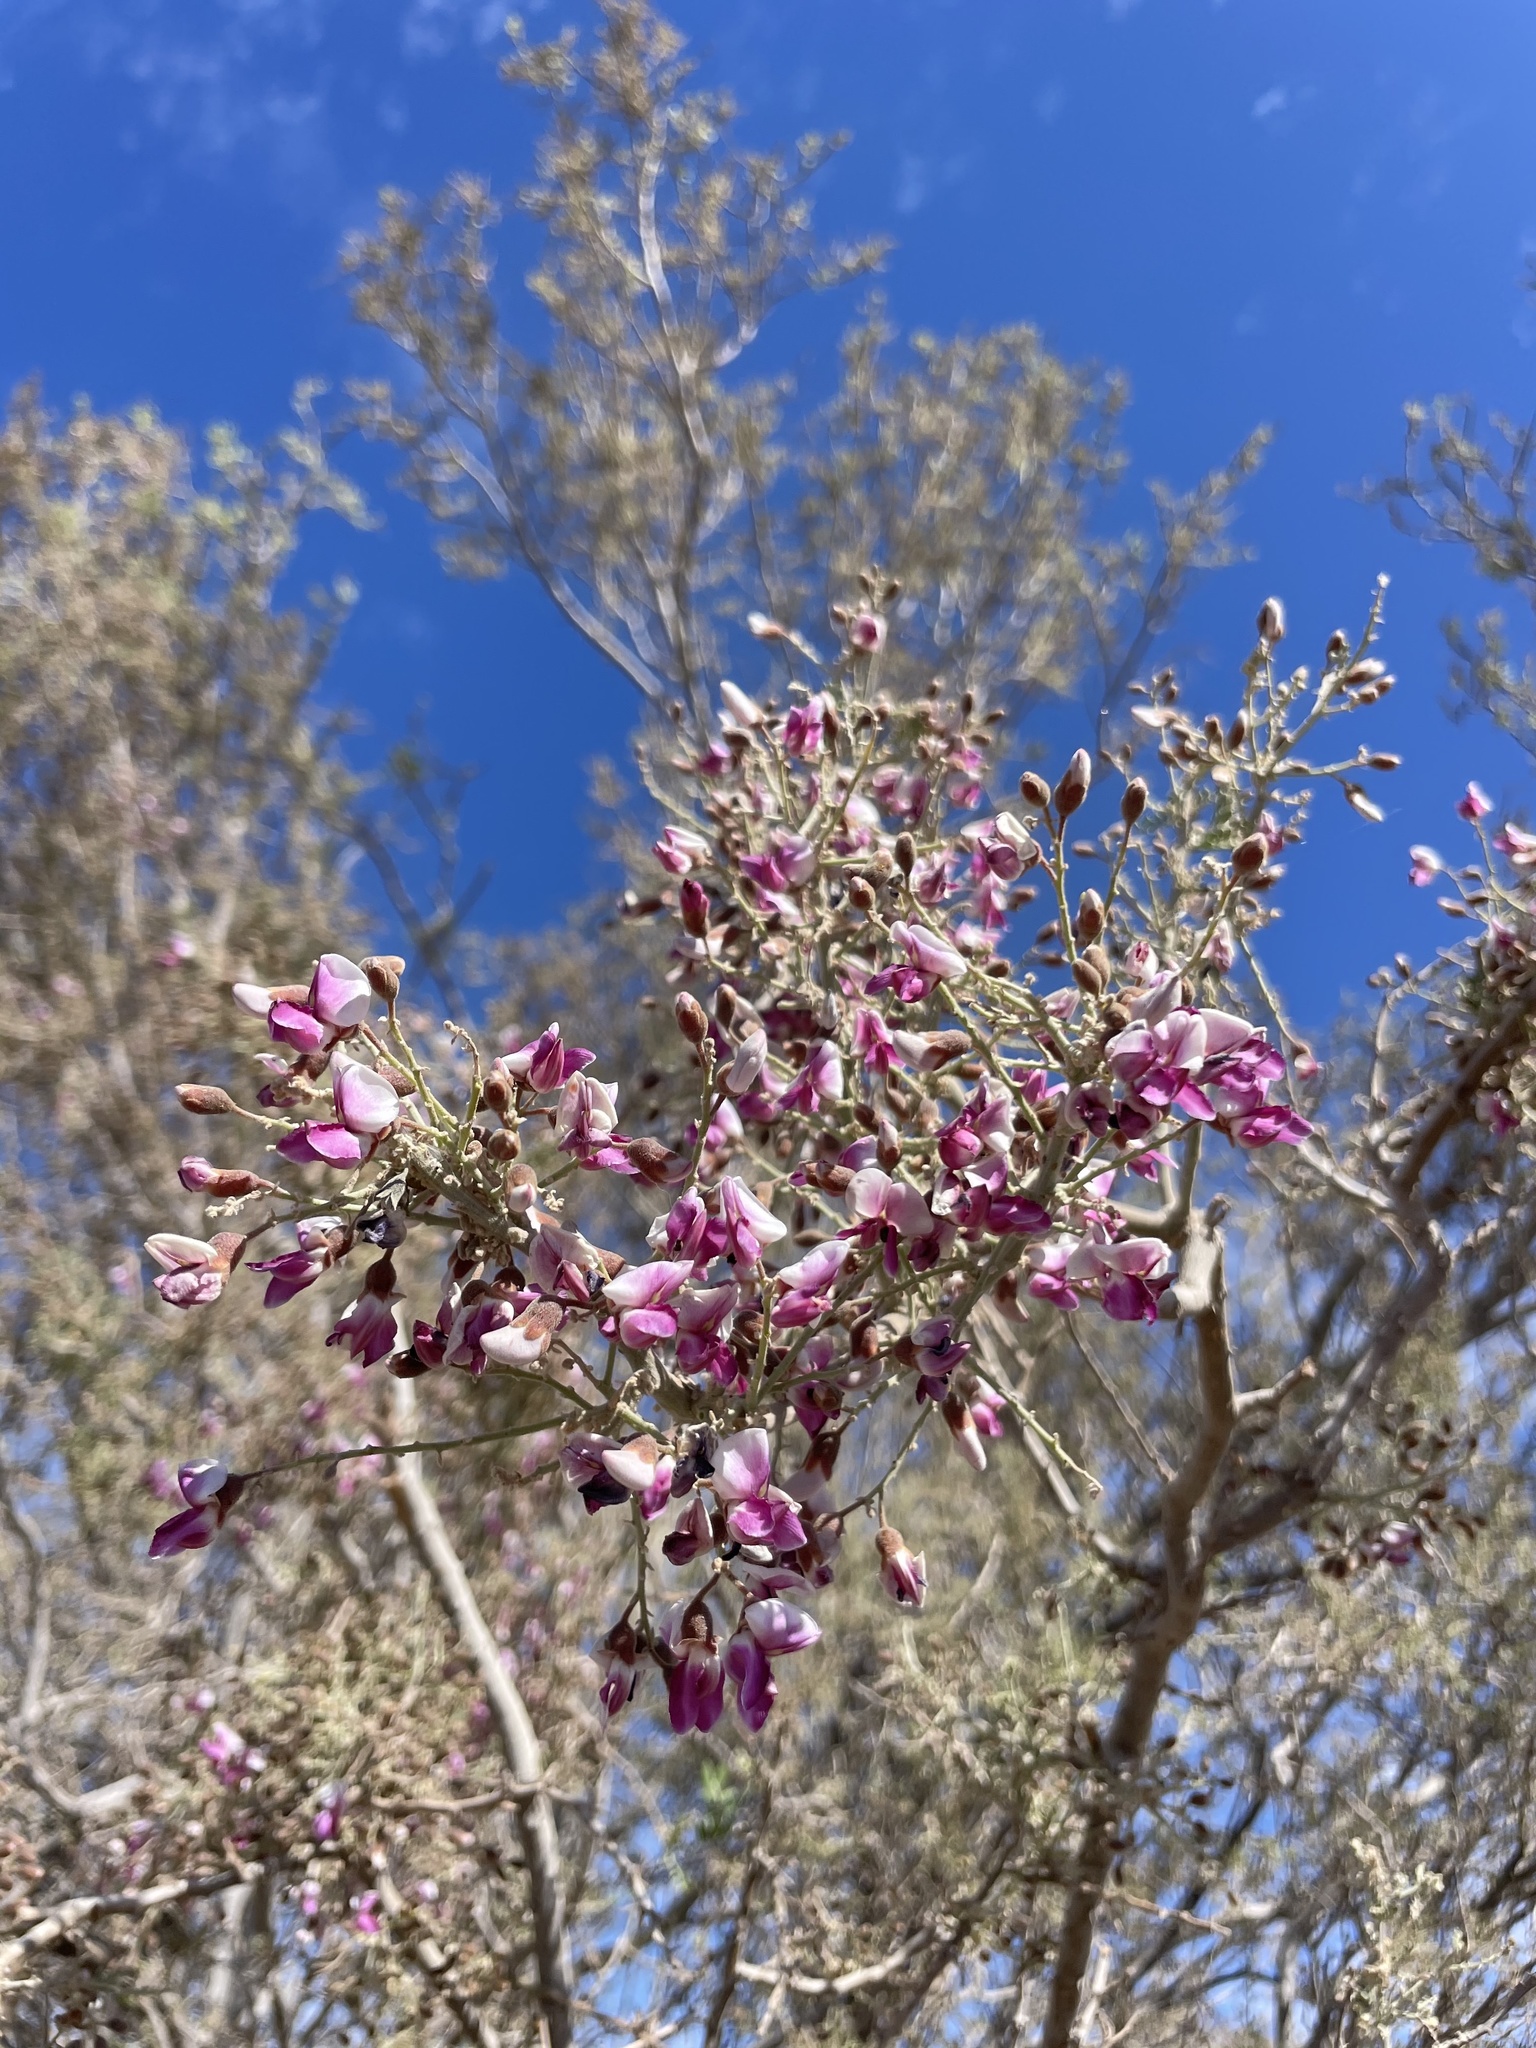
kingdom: Plantae
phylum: Tracheophyta
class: Magnoliopsida
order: Fabales
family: Fabaceae
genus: Olneya
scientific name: Olneya tesota
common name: Desert ironwood
